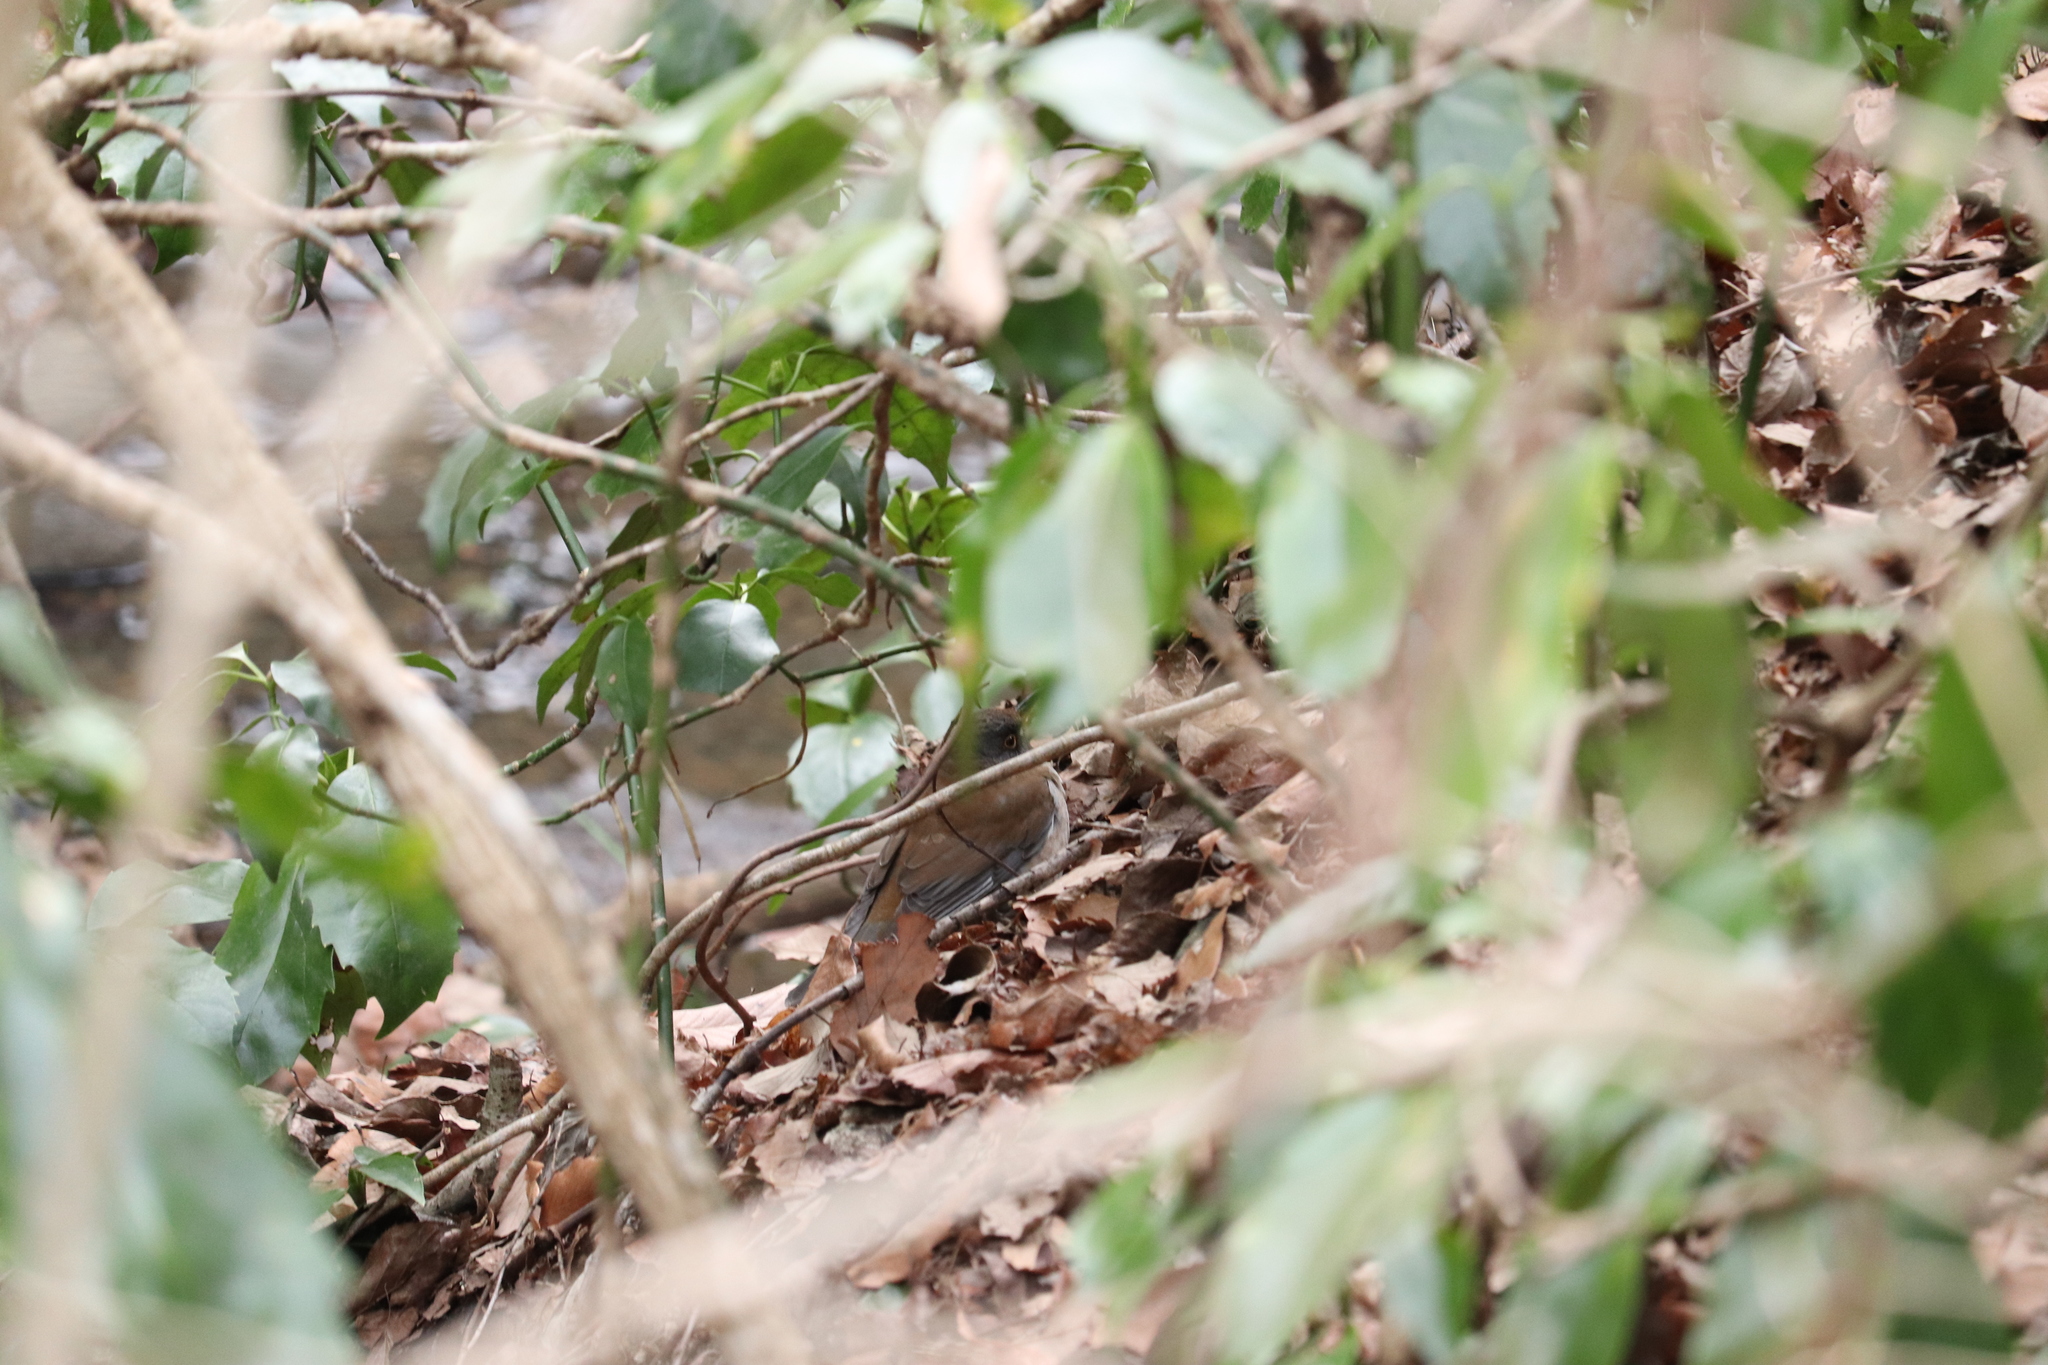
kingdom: Animalia
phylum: Chordata
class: Aves
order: Passeriformes
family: Turdidae
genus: Turdus
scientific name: Turdus pallidus
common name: Pale thrush
